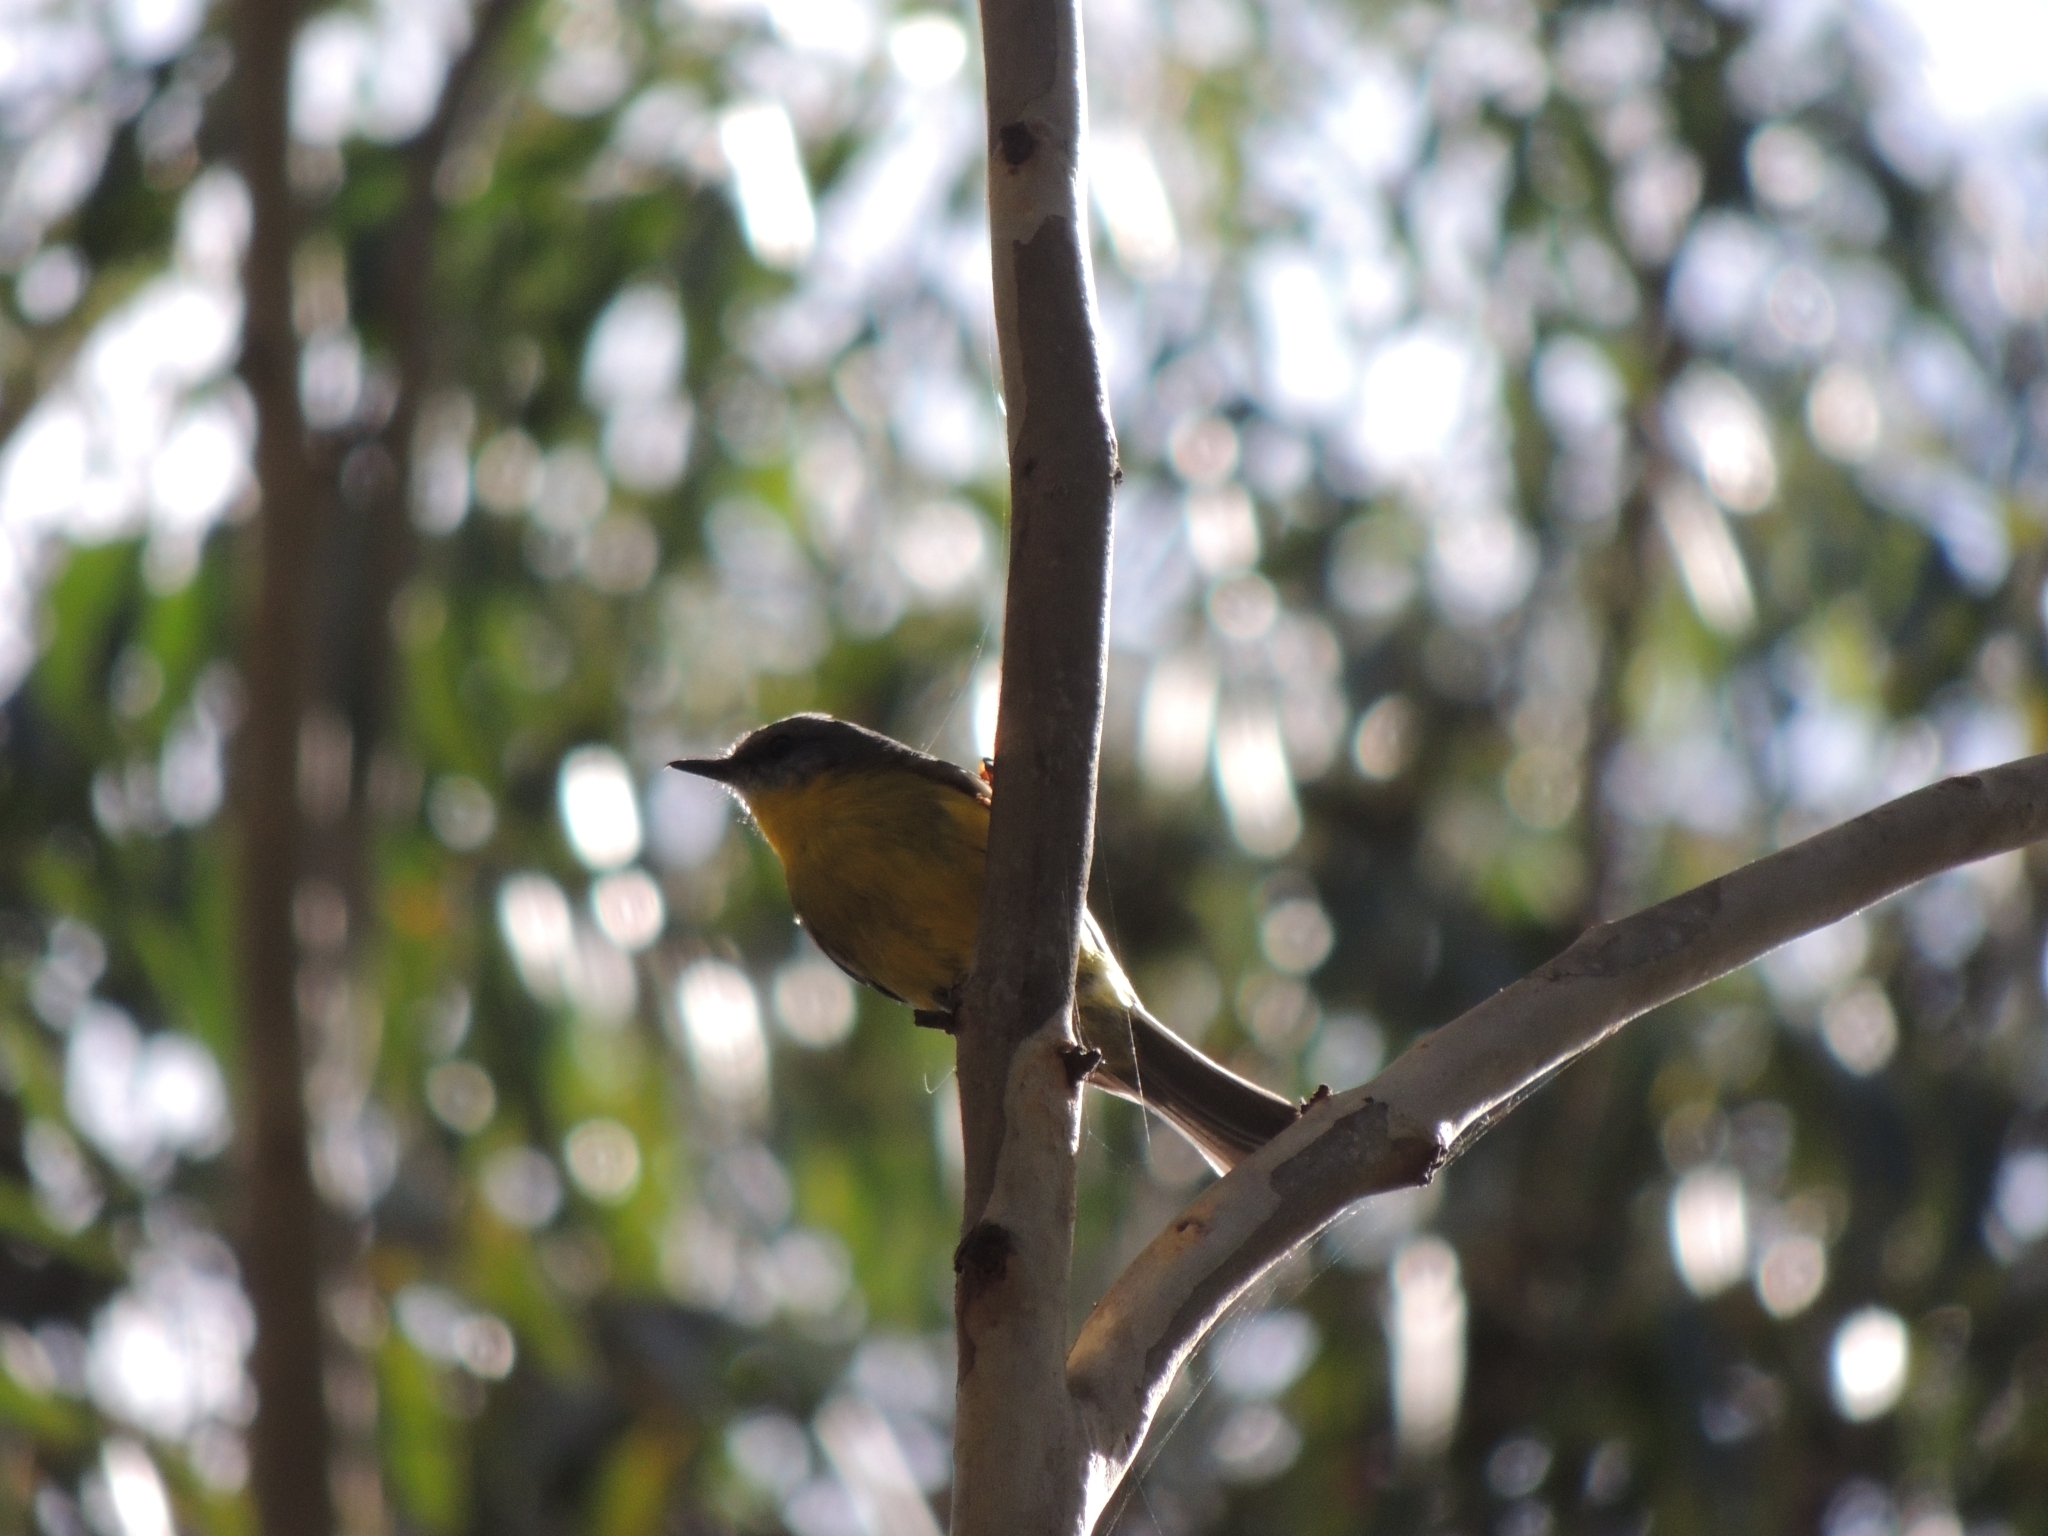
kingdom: Animalia
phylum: Chordata
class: Aves
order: Passeriformes
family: Petroicidae
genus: Eopsaltria
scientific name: Eopsaltria australis
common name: Eastern yellow robin
